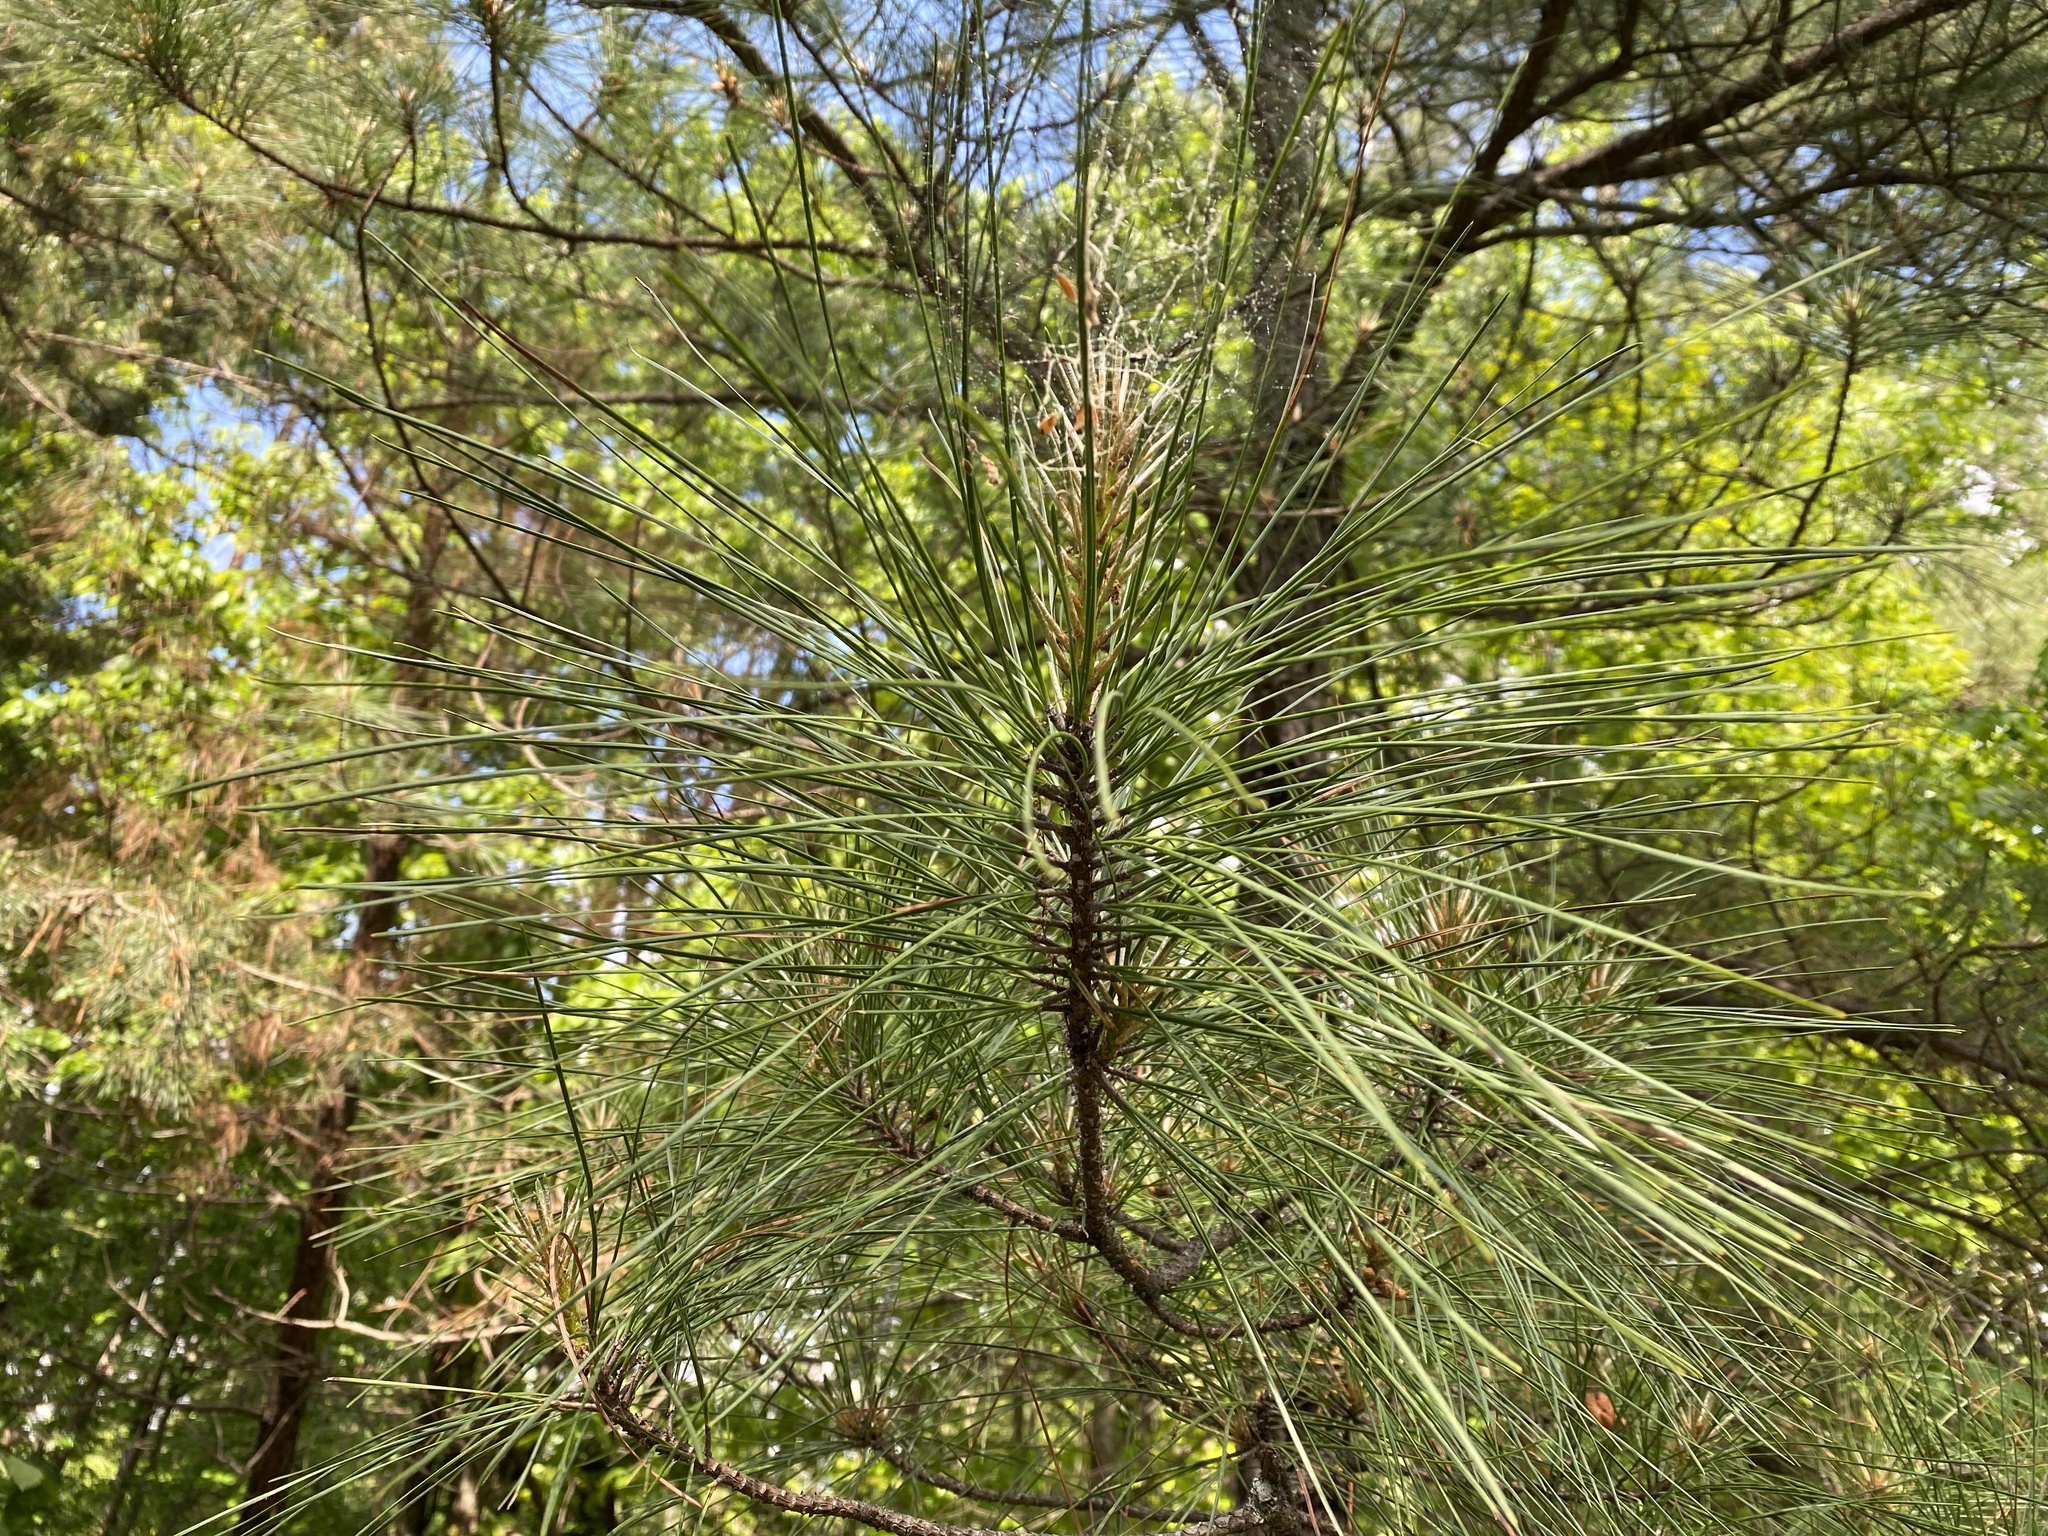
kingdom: Plantae
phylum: Tracheophyta
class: Pinopsida
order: Pinales
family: Pinaceae
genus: Pinus
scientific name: Pinus taeda
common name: Loblolly pine
